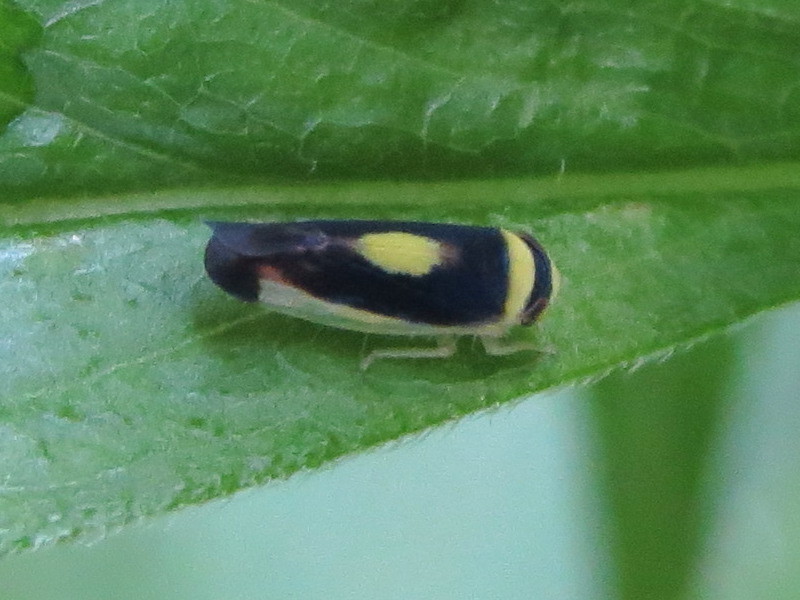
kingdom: Animalia
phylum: Arthropoda
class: Insecta
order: Hemiptera
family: Cicadellidae
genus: Colladonus
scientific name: Colladonus clitellarius
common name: The saddleback leafhopper
